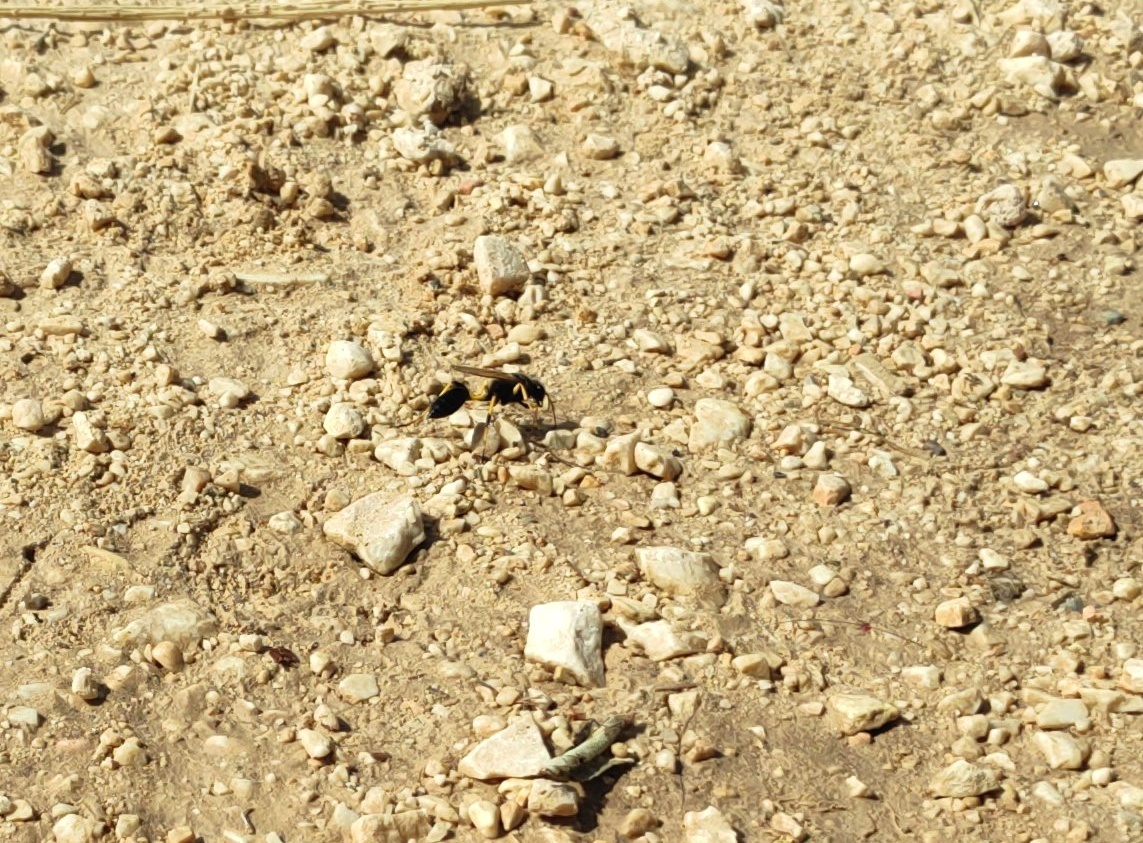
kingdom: Animalia
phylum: Arthropoda
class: Insecta
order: Hymenoptera
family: Sphecidae
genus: Sceliphron
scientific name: Sceliphron
